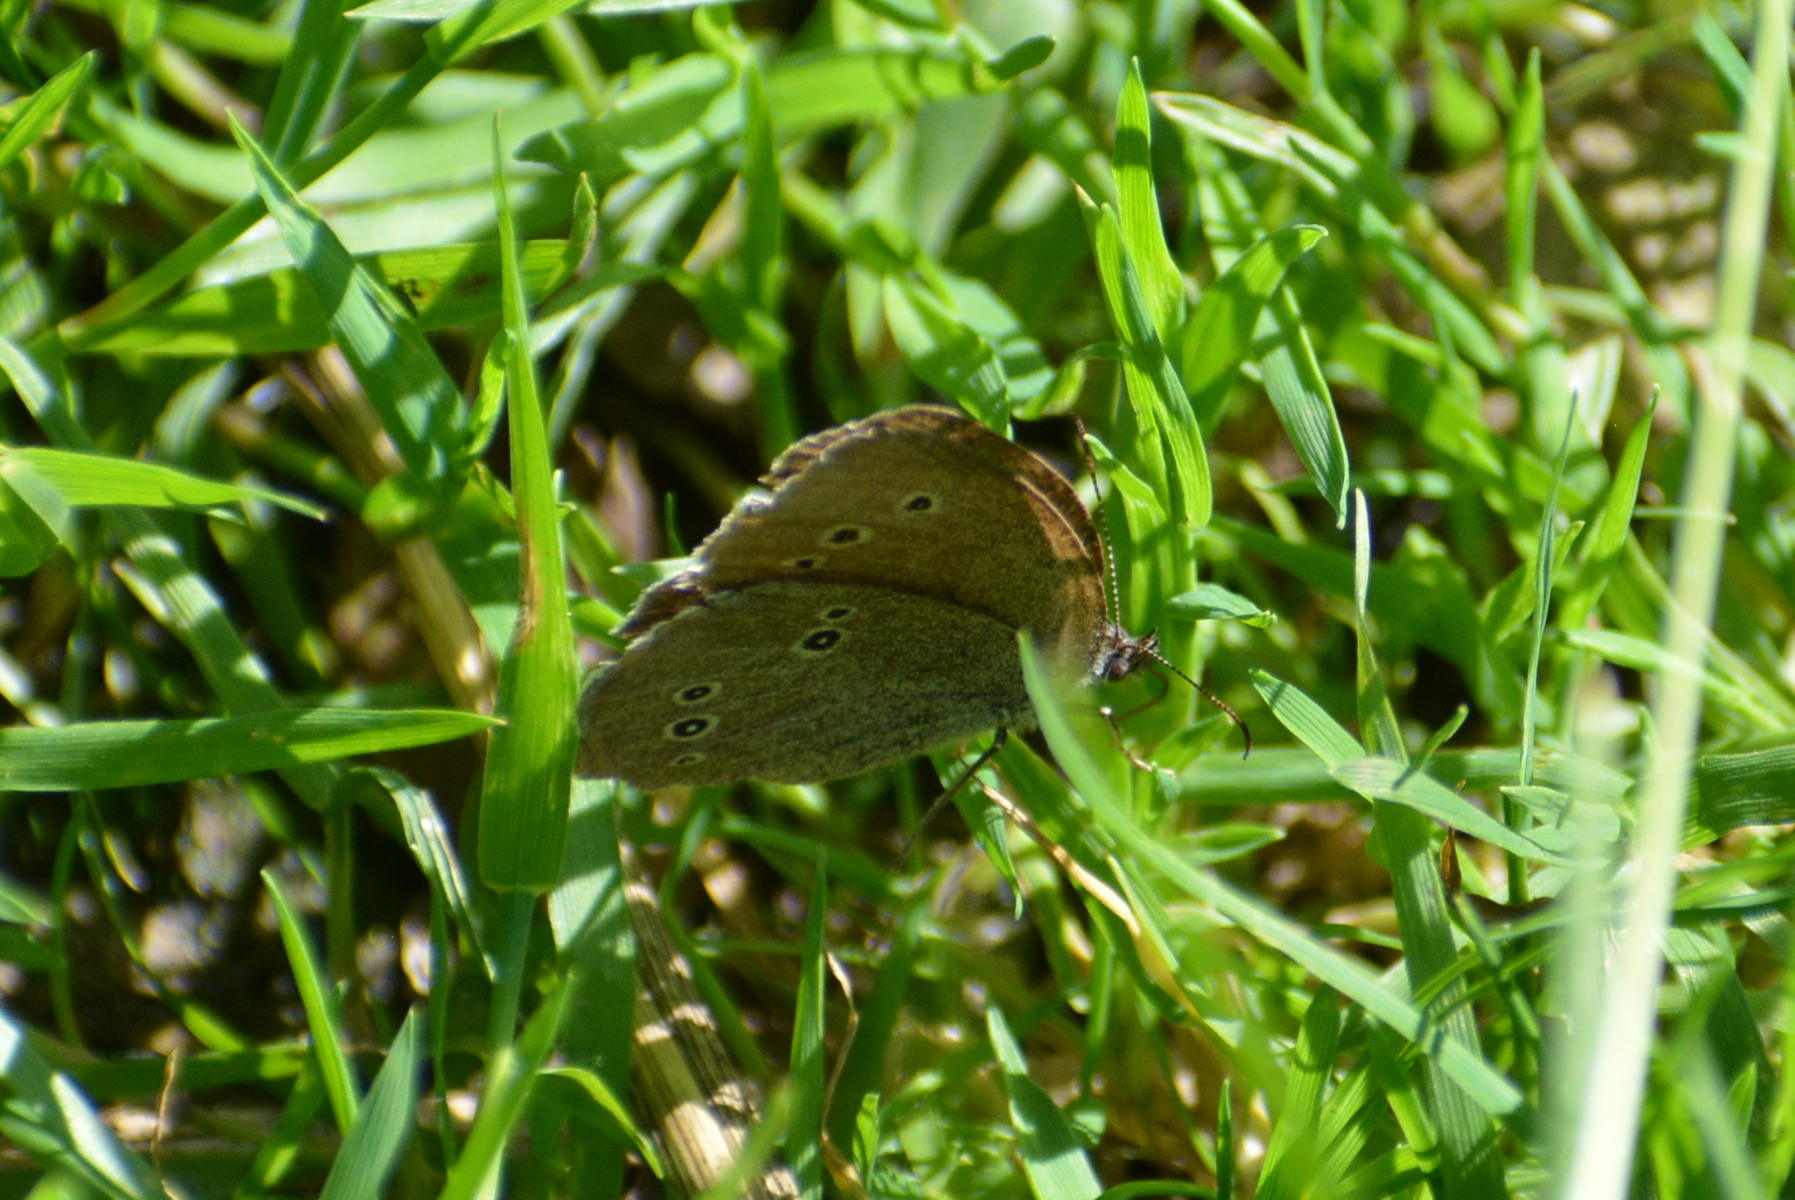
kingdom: Animalia
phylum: Arthropoda
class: Insecta
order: Lepidoptera
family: Nymphalidae
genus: Aphantopus
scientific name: Aphantopus hyperantus
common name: Ringlet
